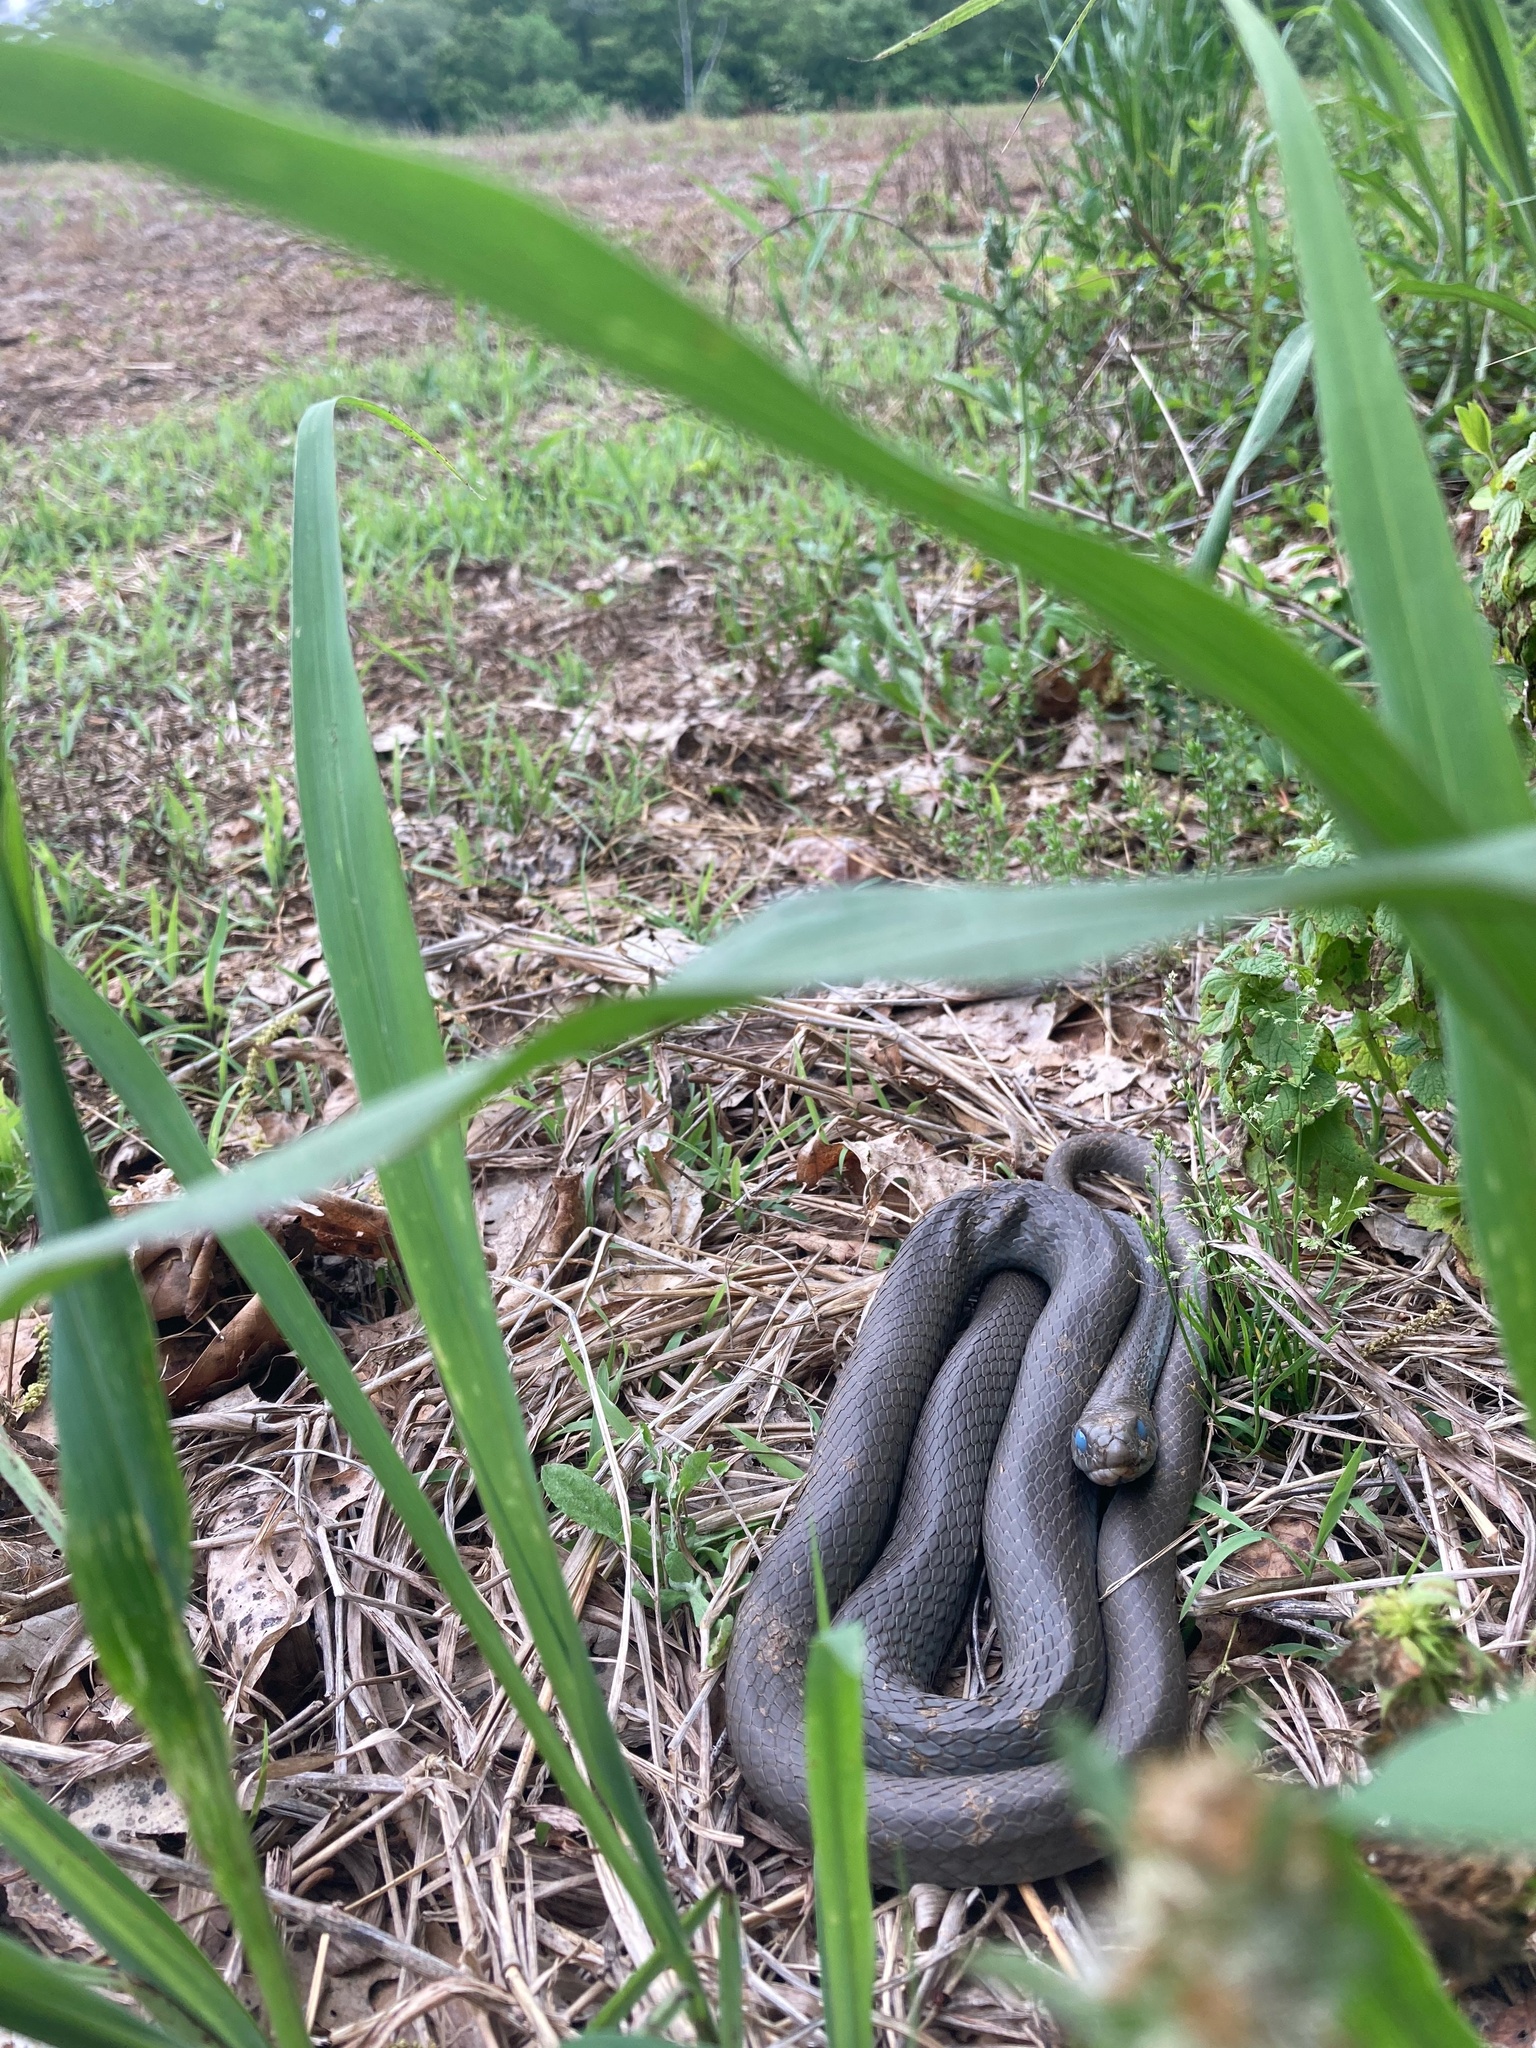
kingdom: Animalia
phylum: Chordata
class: Squamata
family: Colubridae
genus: Coluber
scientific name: Coluber constrictor
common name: Eastern racer
